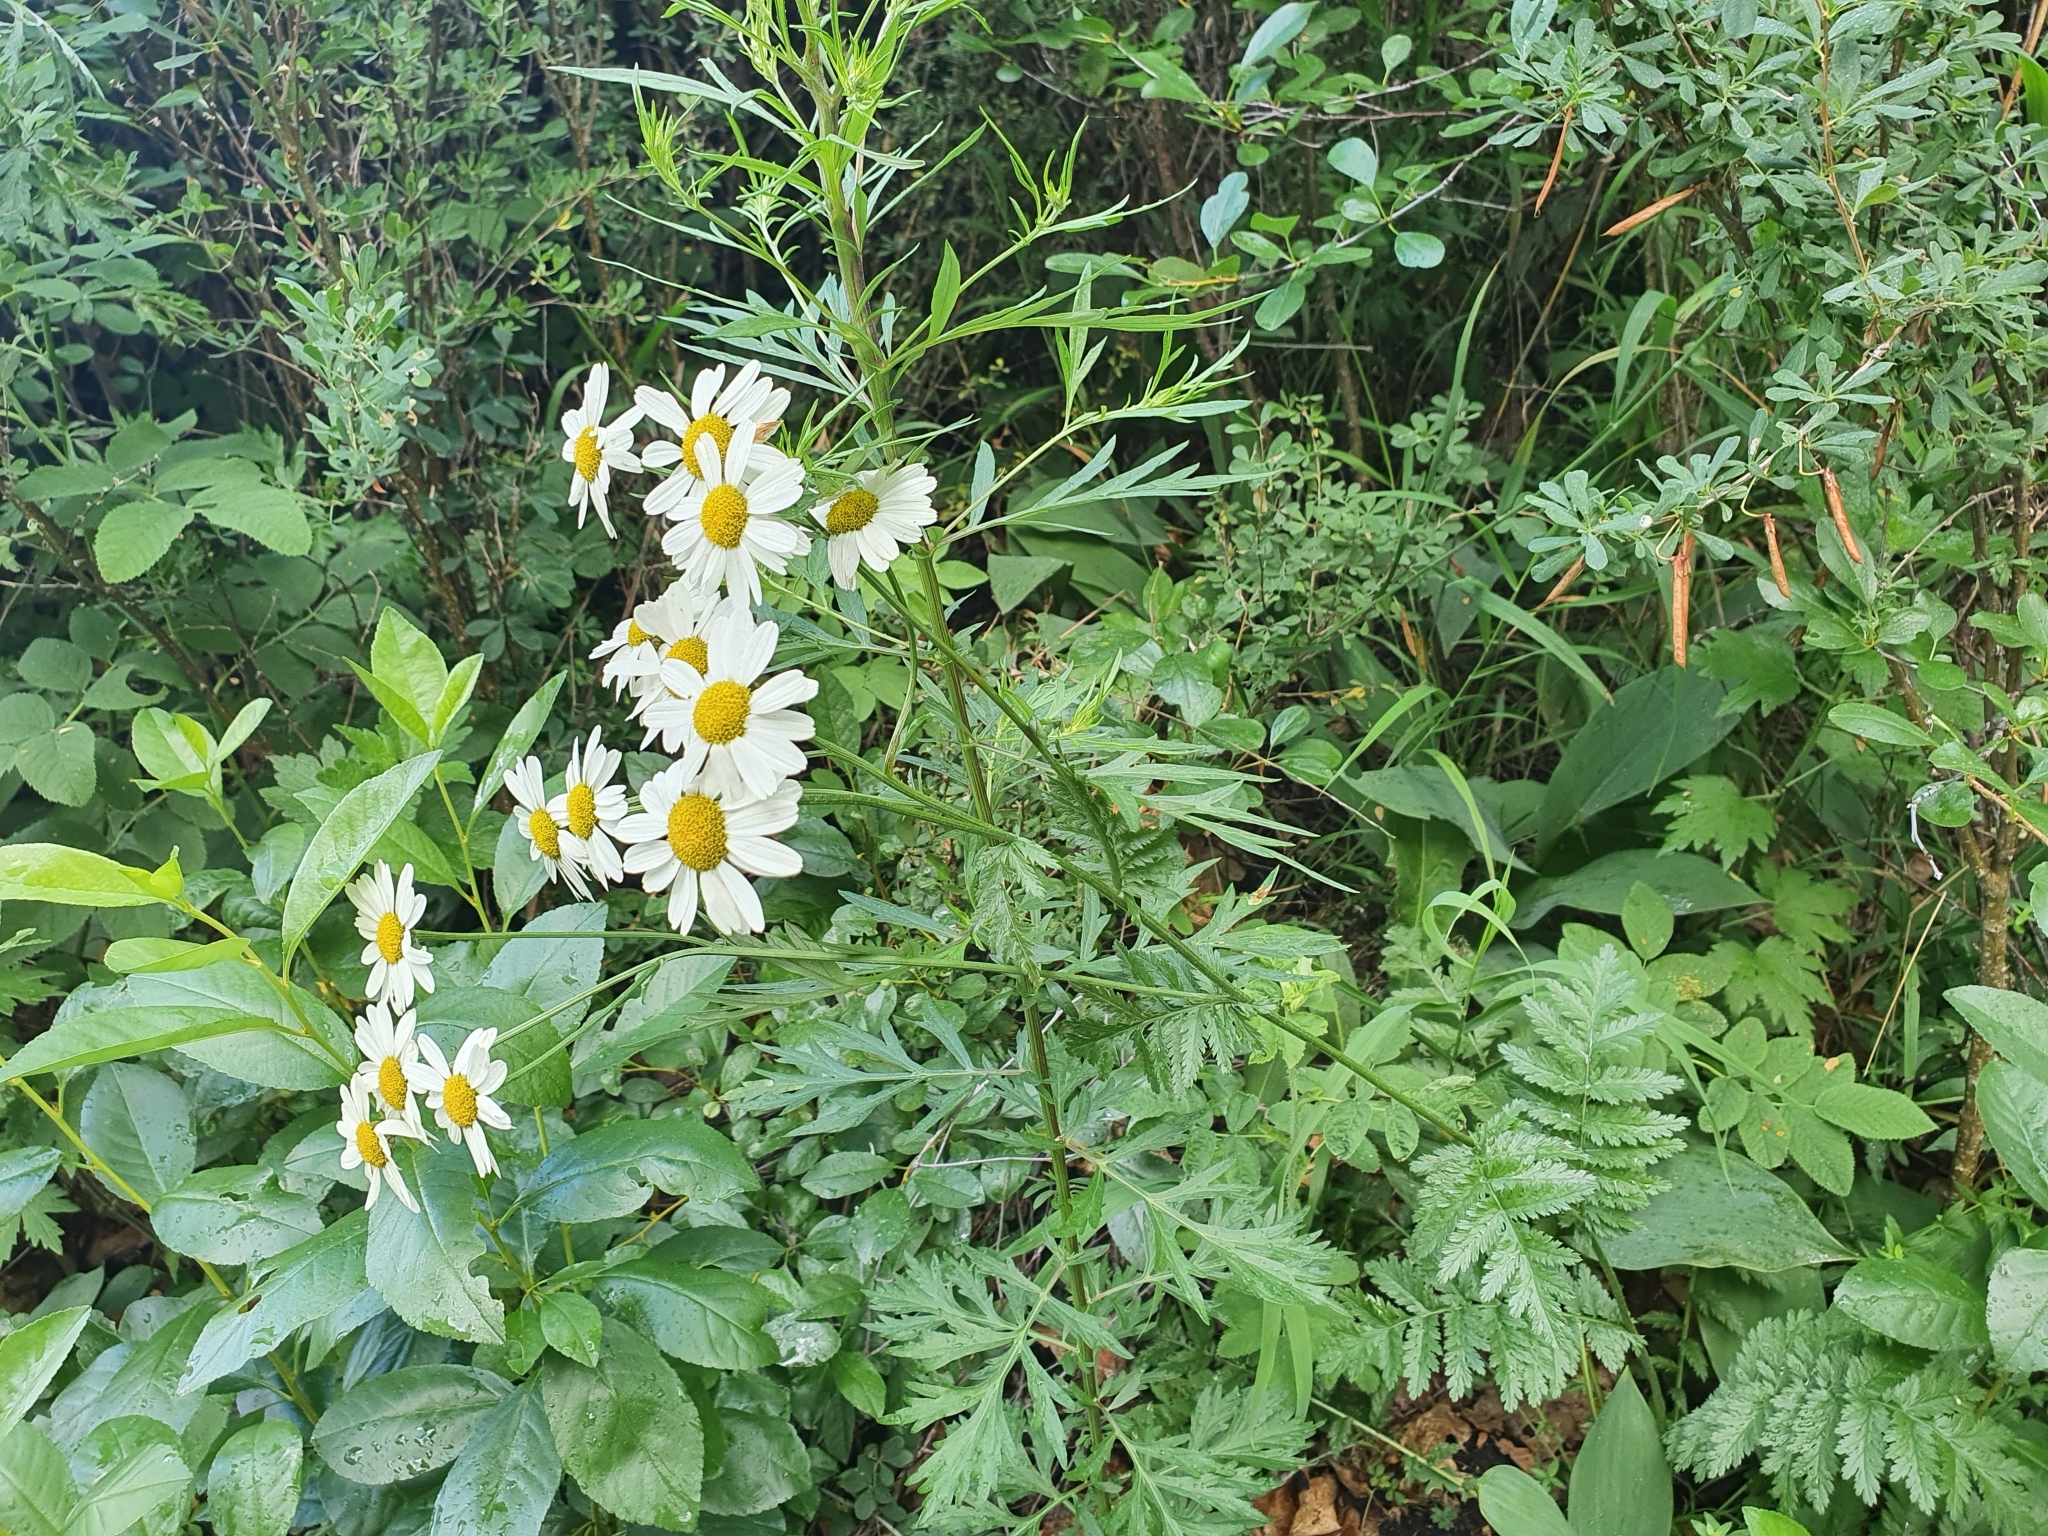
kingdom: Plantae
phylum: Tracheophyta
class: Magnoliopsida
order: Asterales
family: Asteraceae
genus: Tanacetum
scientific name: Tanacetum corymbosum
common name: Scentless feverfew
